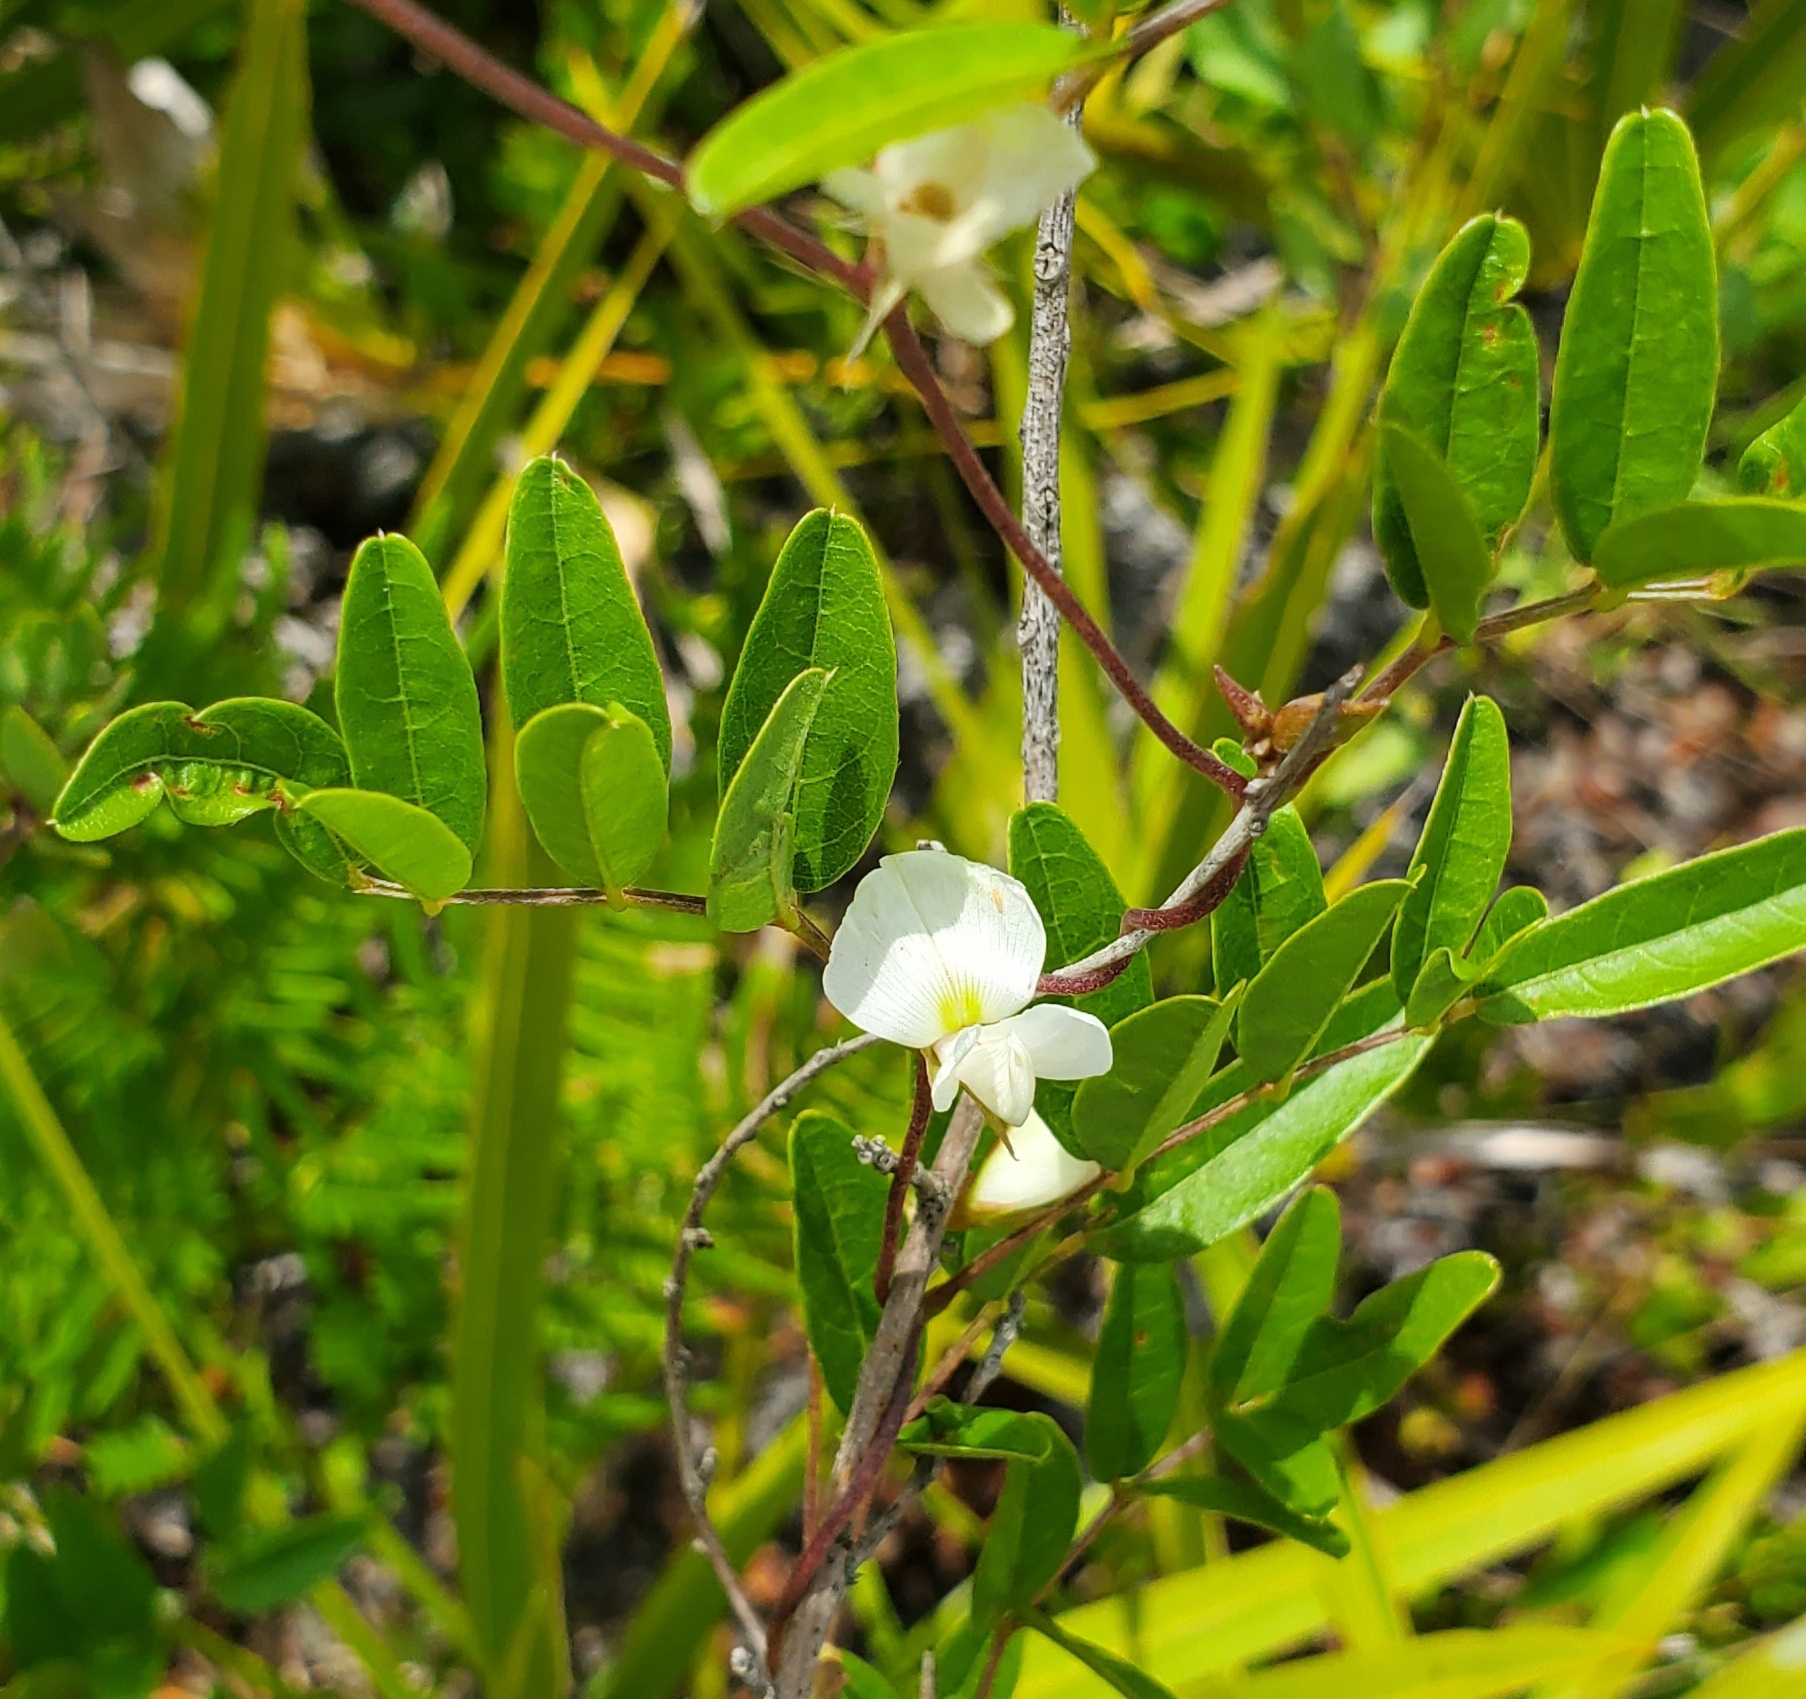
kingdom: Plantae
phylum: Tracheophyta
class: Magnoliopsida
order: Fabales
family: Fabaceae
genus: Galactia
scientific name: Galactia elliottii
